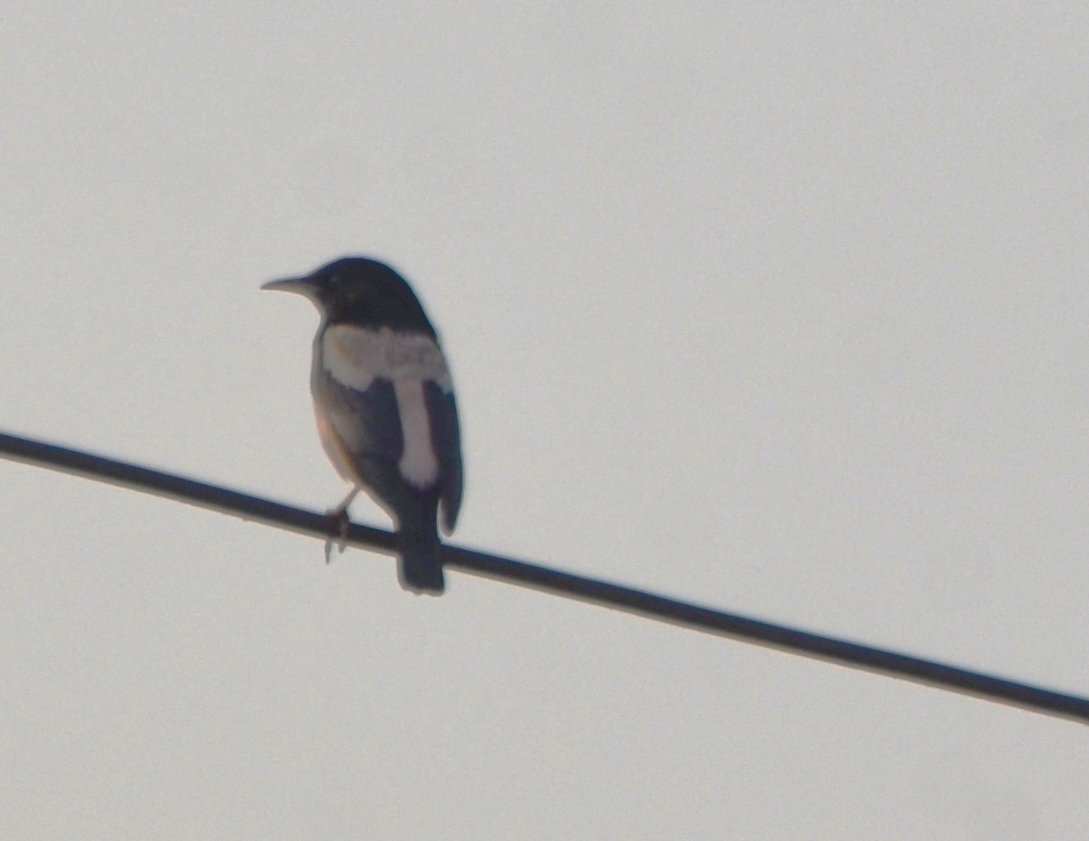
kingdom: Animalia
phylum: Chordata
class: Aves
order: Passeriformes
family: Sturnidae
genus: Pastor
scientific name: Pastor roseus
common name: Rosy starling
